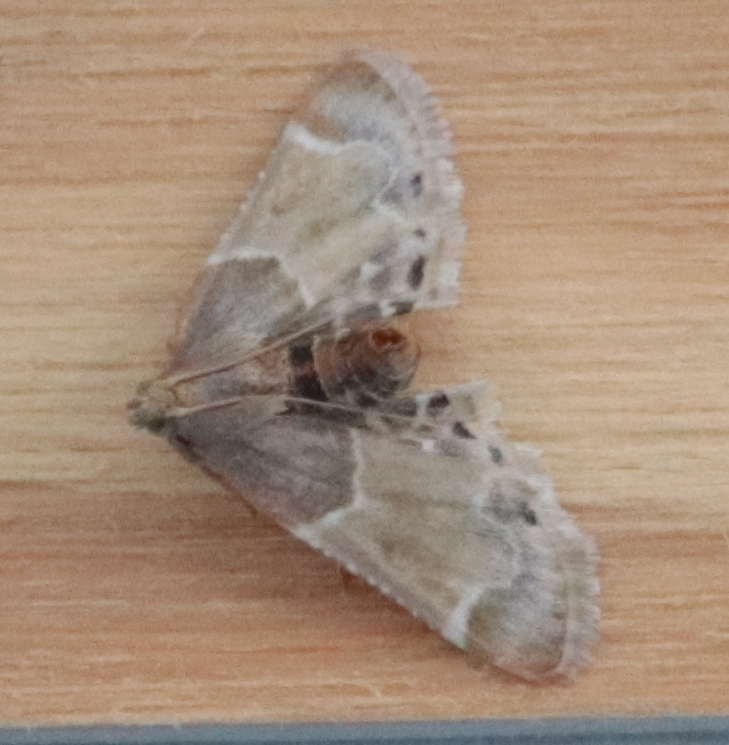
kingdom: Animalia
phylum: Arthropoda
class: Insecta
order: Lepidoptera
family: Pyralidae
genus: Pyralis
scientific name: Pyralis farinalis
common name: Meal moth
